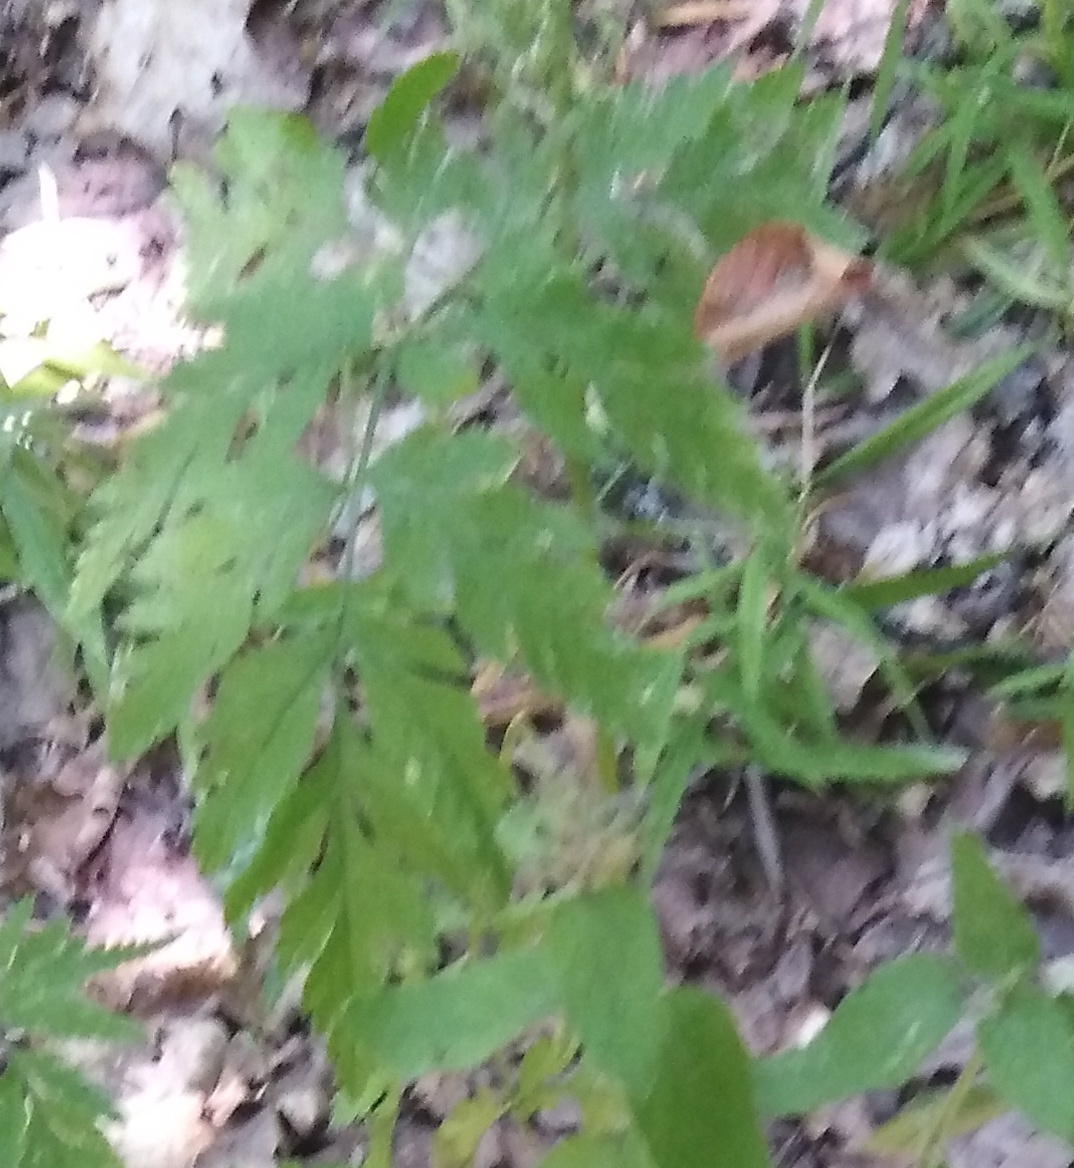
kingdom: Plantae
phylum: Tracheophyta
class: Magnoliopsida
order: Apiales
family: Apiaceae
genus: Torilis
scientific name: Torilis japonica
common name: Upright hedge-parsley
